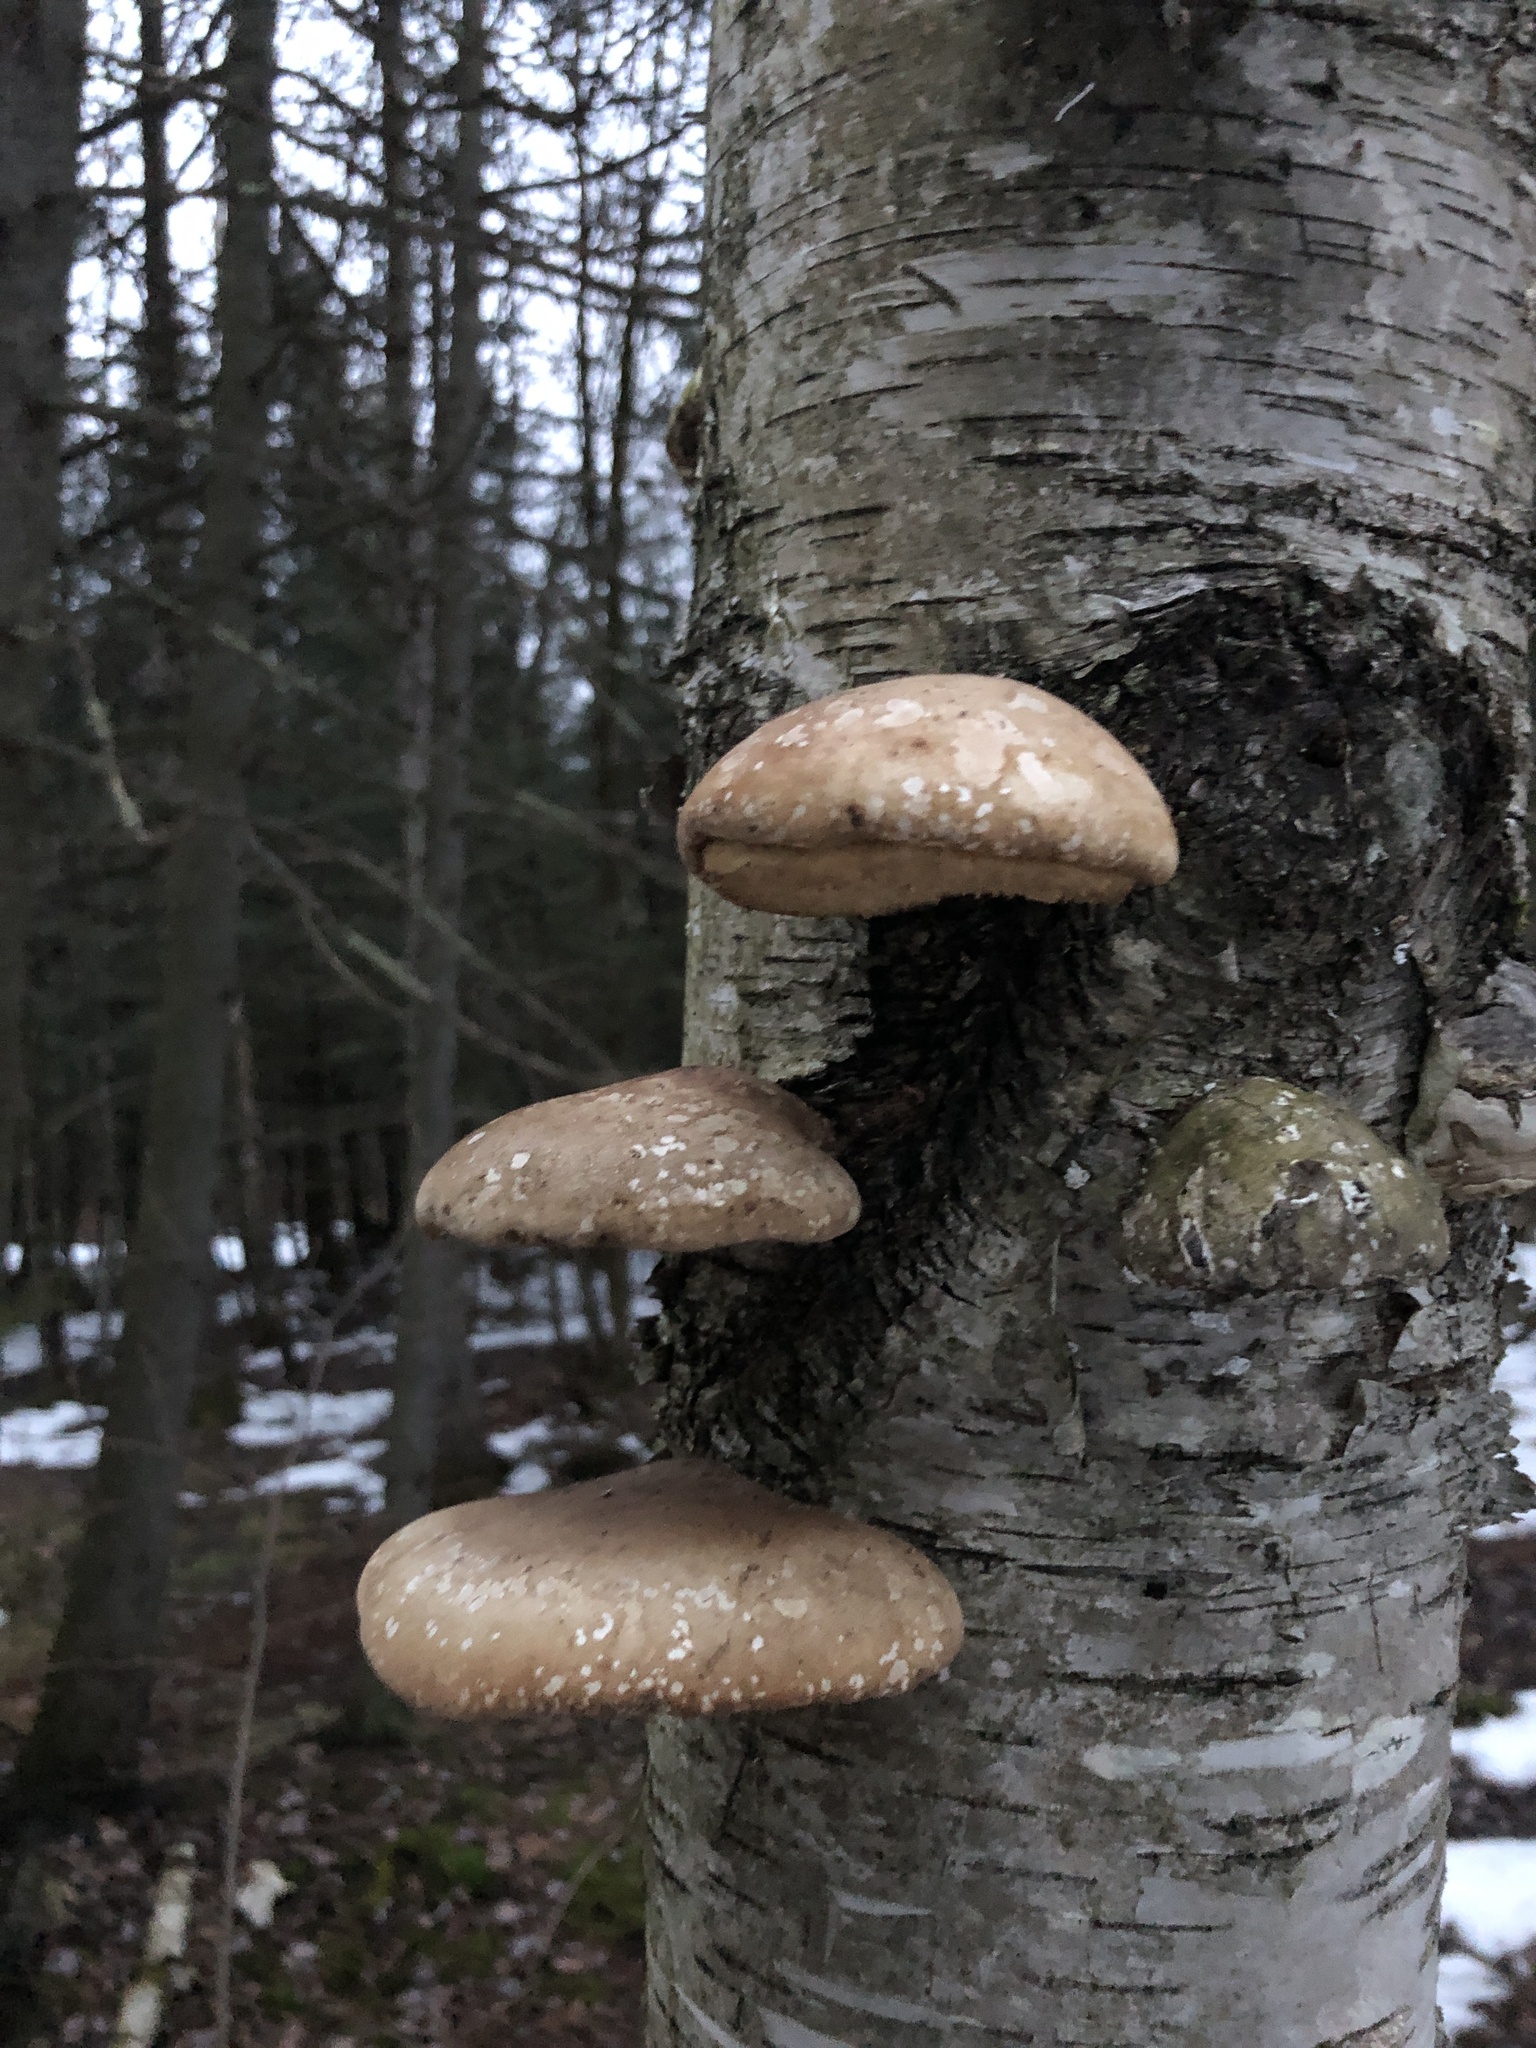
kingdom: Fungi
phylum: Basidiomycota
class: Agaricomycetes
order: Polyporales
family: Fomitopsidaceae
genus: Fomitopsis
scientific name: Fomitopsis betulina
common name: Birch polypore
